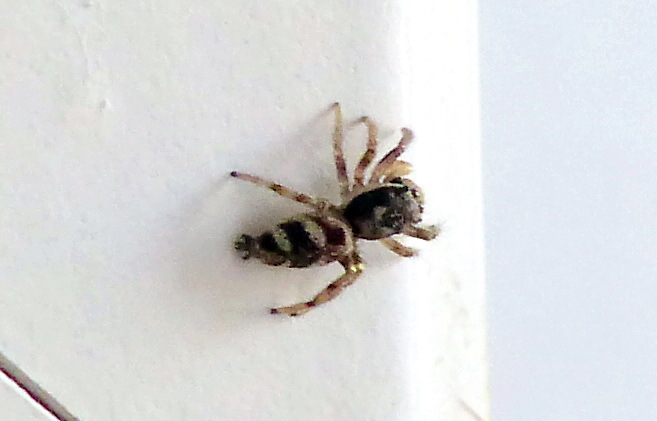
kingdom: Animalia
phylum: Arthropoda
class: Arachnida
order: Araneae
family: Salticidae
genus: Salticus
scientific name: Salticus scenicus
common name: Zebra jumper
